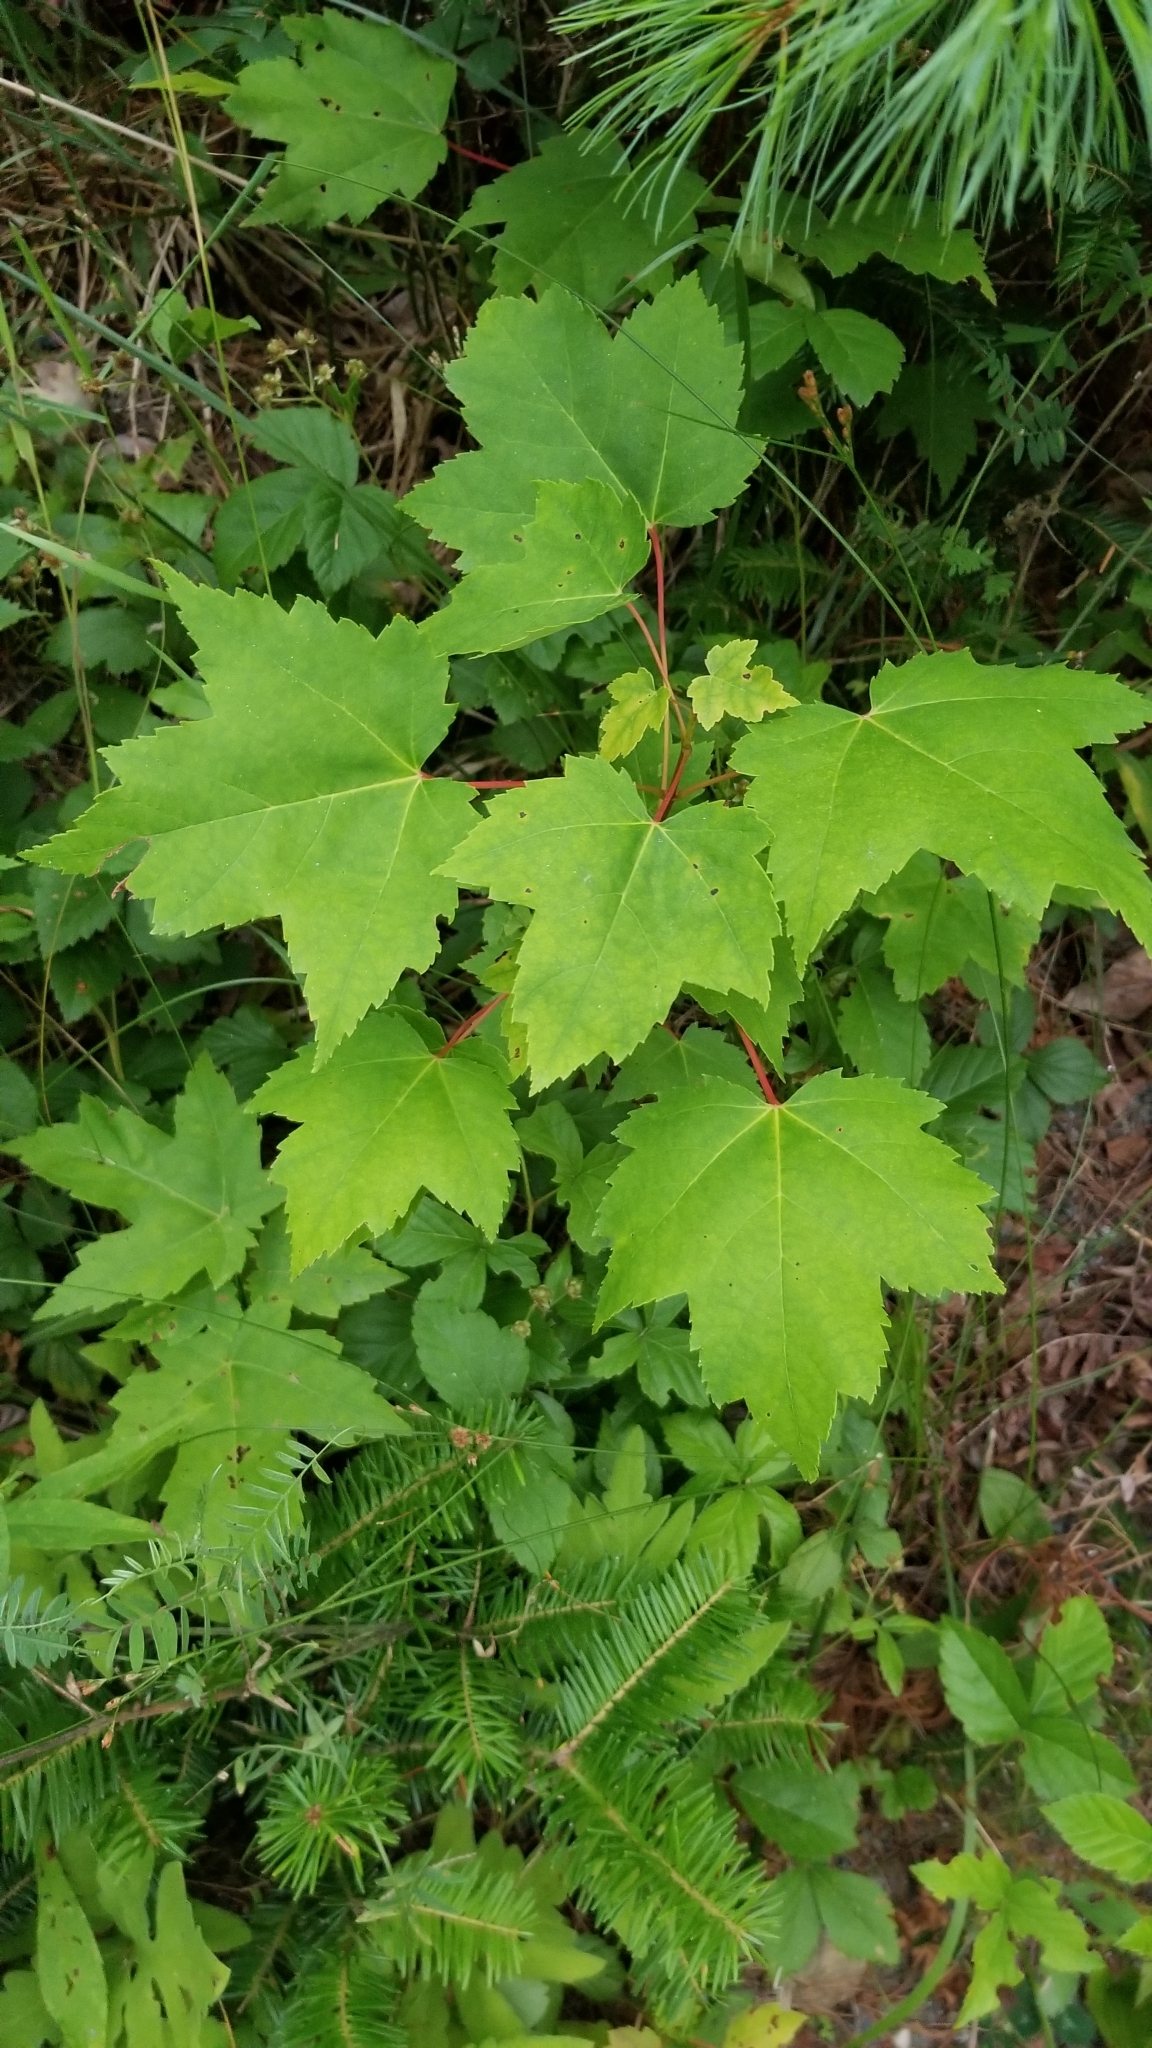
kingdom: Plantae
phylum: Tracheophyta
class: Magnoliopsida
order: Sapindales
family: Sapindaceae
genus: Acer
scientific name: Acer rubrum
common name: Red maple
